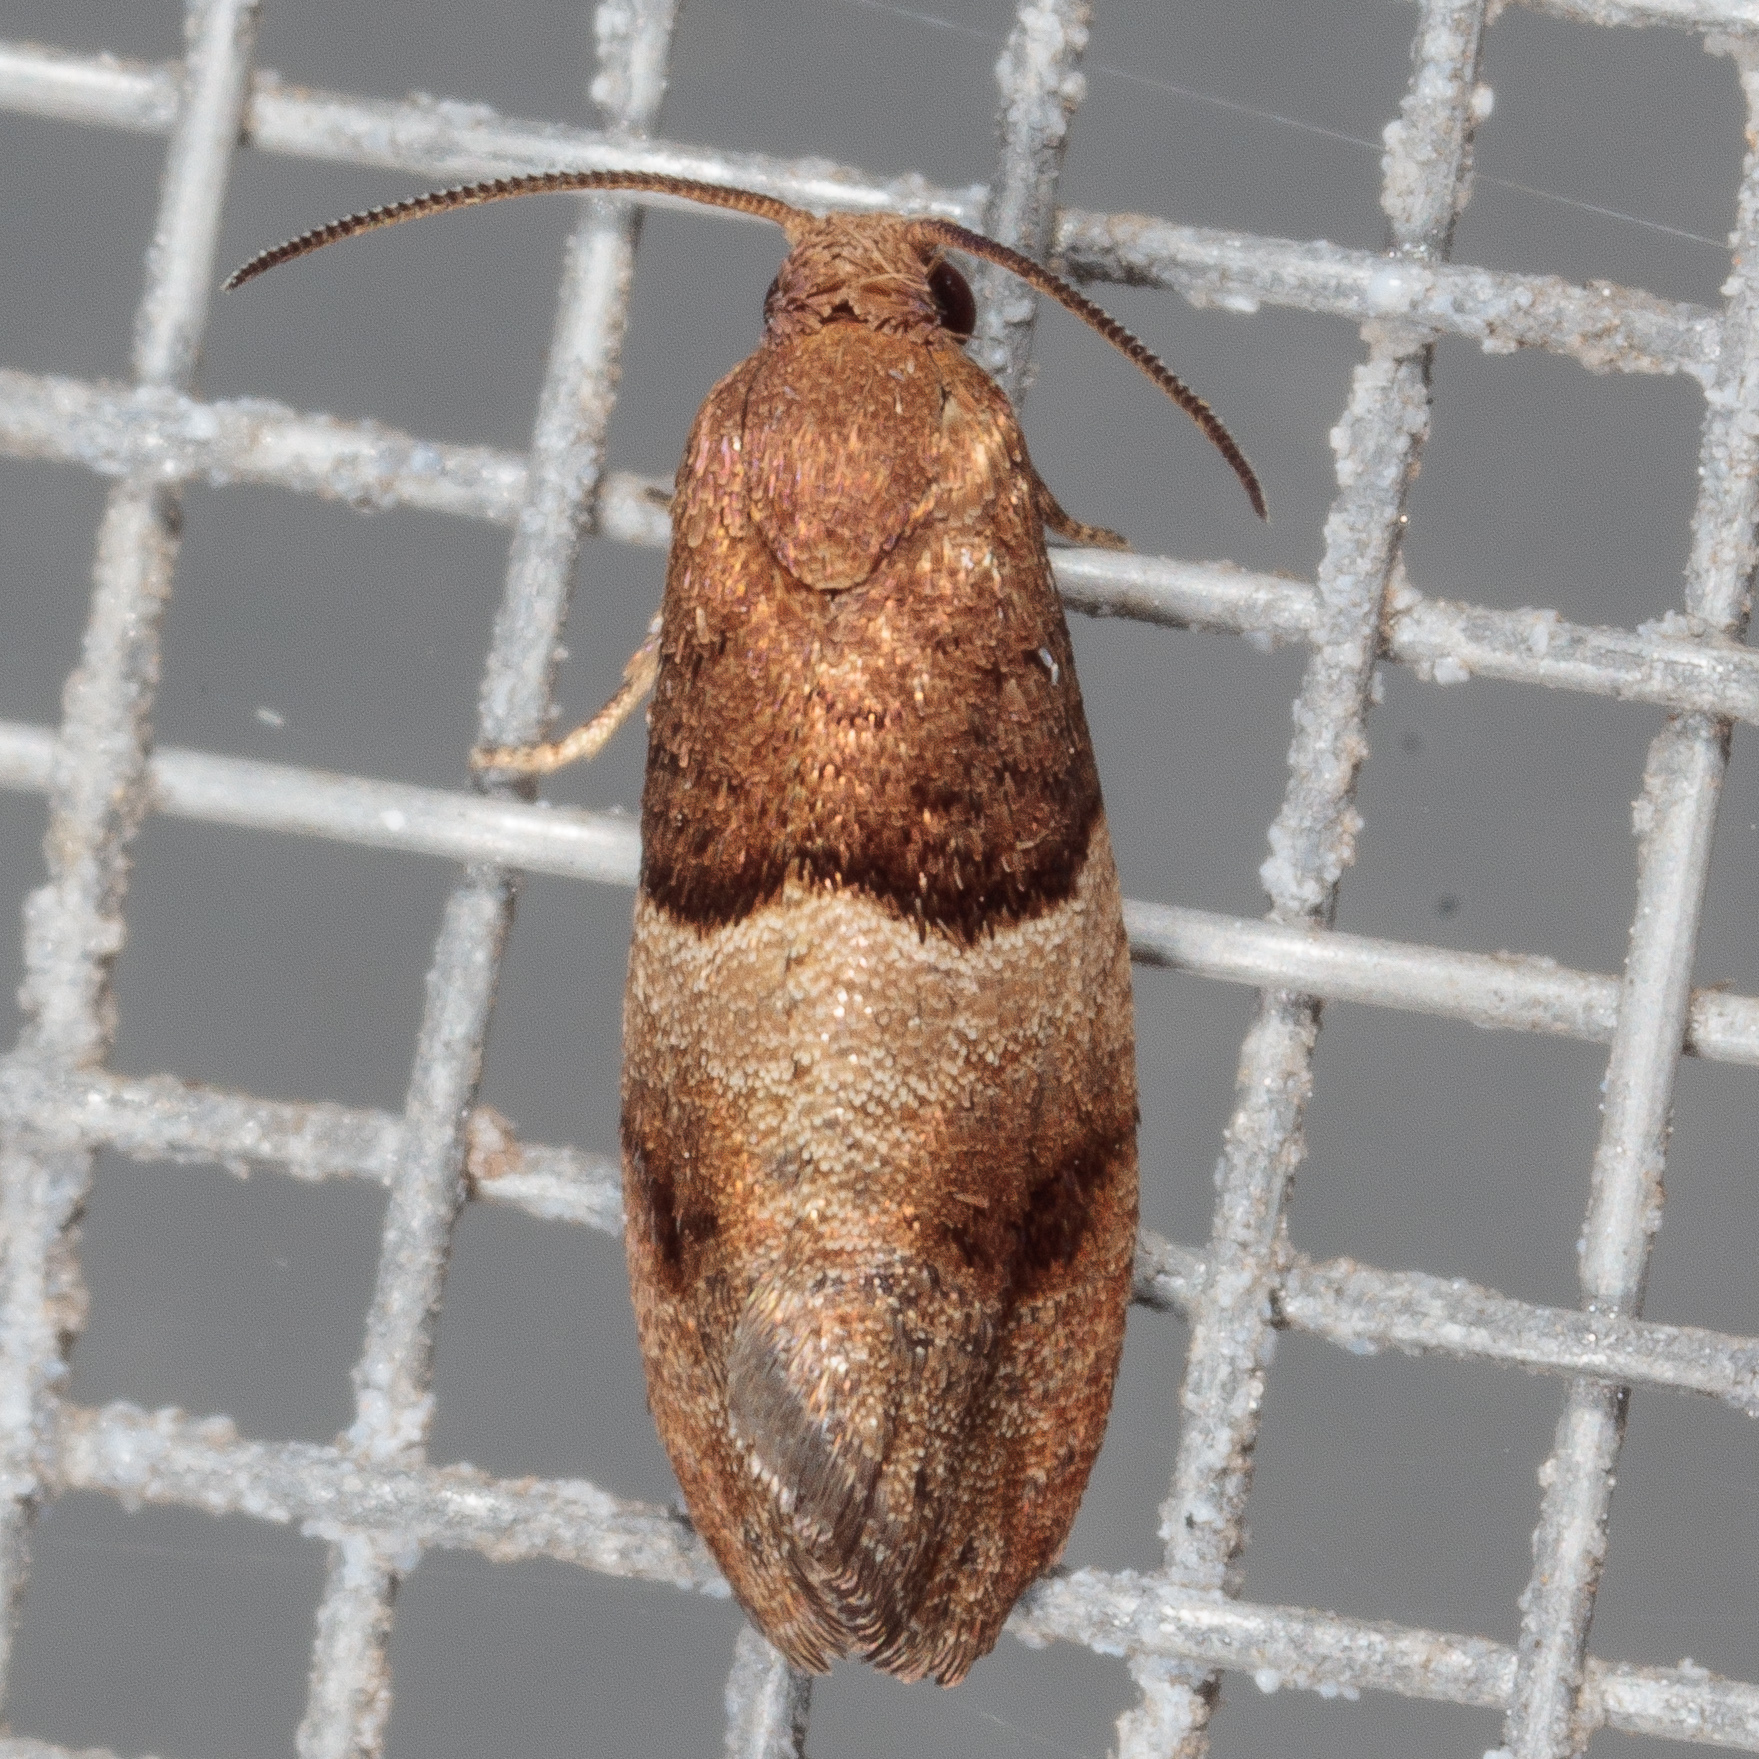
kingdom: Animalia
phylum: Arthropoda
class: Insecta
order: Lepidoptera
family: Tortricidae
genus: Larisa
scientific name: Larisa subsolana
